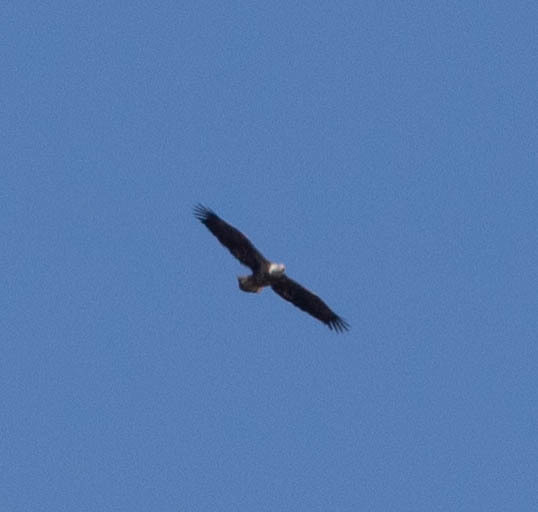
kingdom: Animalia
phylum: Chordata
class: Aves
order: Accipitriformes
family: Accipitridae
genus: Haliaeetus
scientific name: Haliaeetus leucocephalus
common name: Bald eagle
